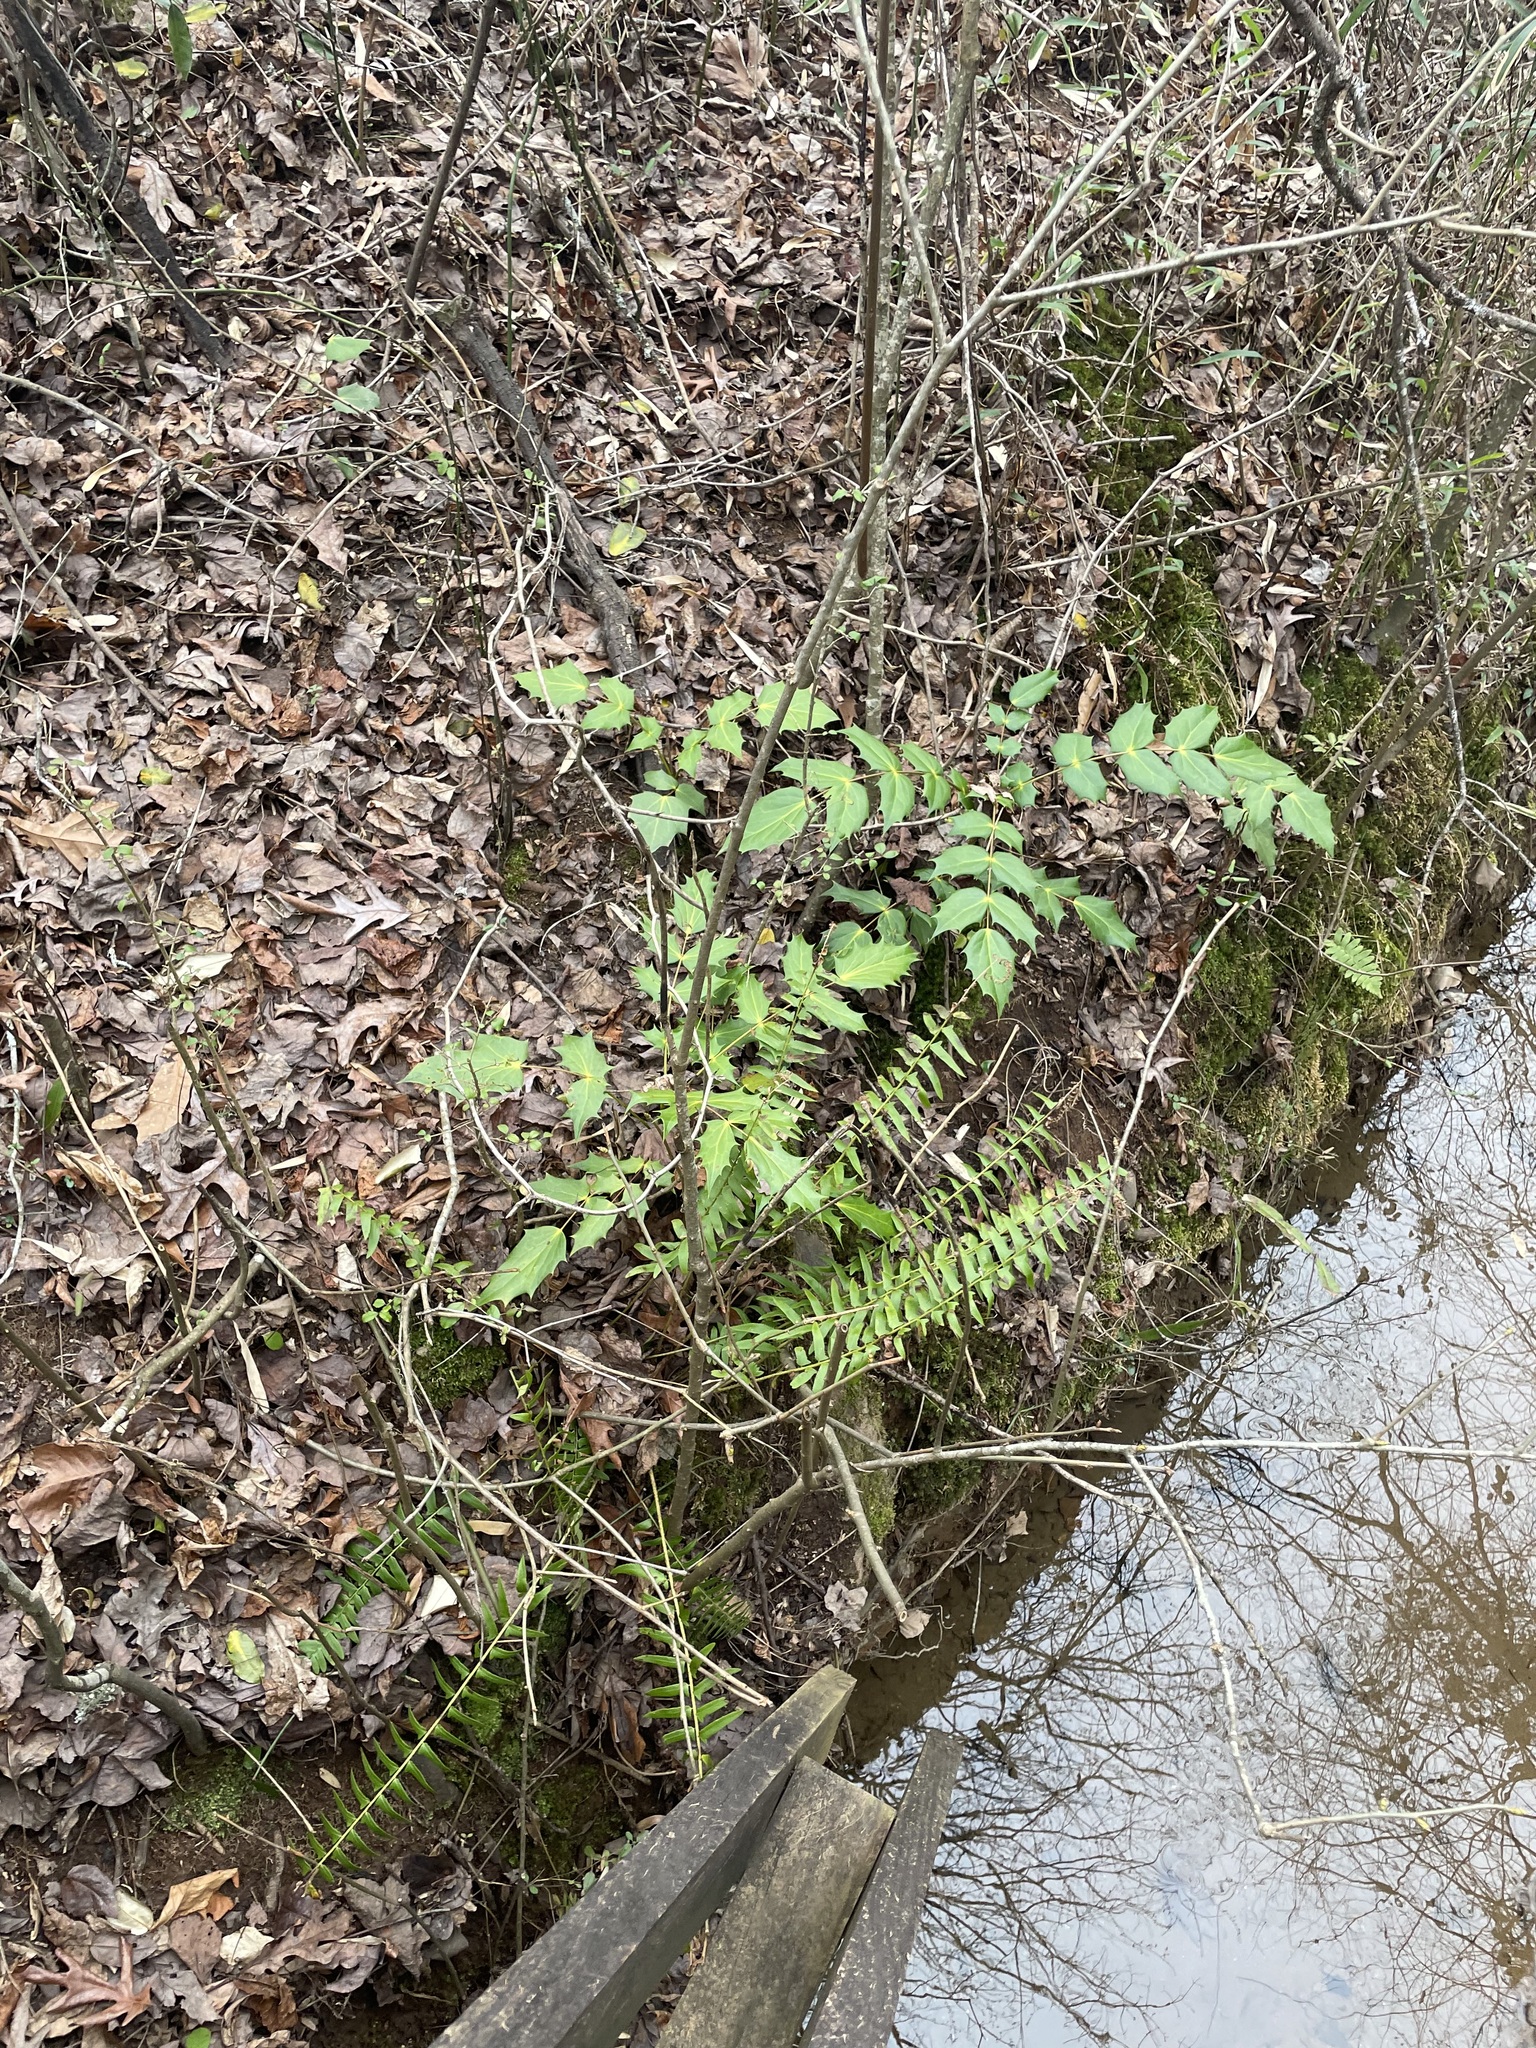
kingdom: Plantae
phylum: Tracheophyta
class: Polypodiopsida
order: Polypodiales
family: Dryopteridaceae
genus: Polystichum
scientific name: Polystichum acrostichoides
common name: Christmas fern
